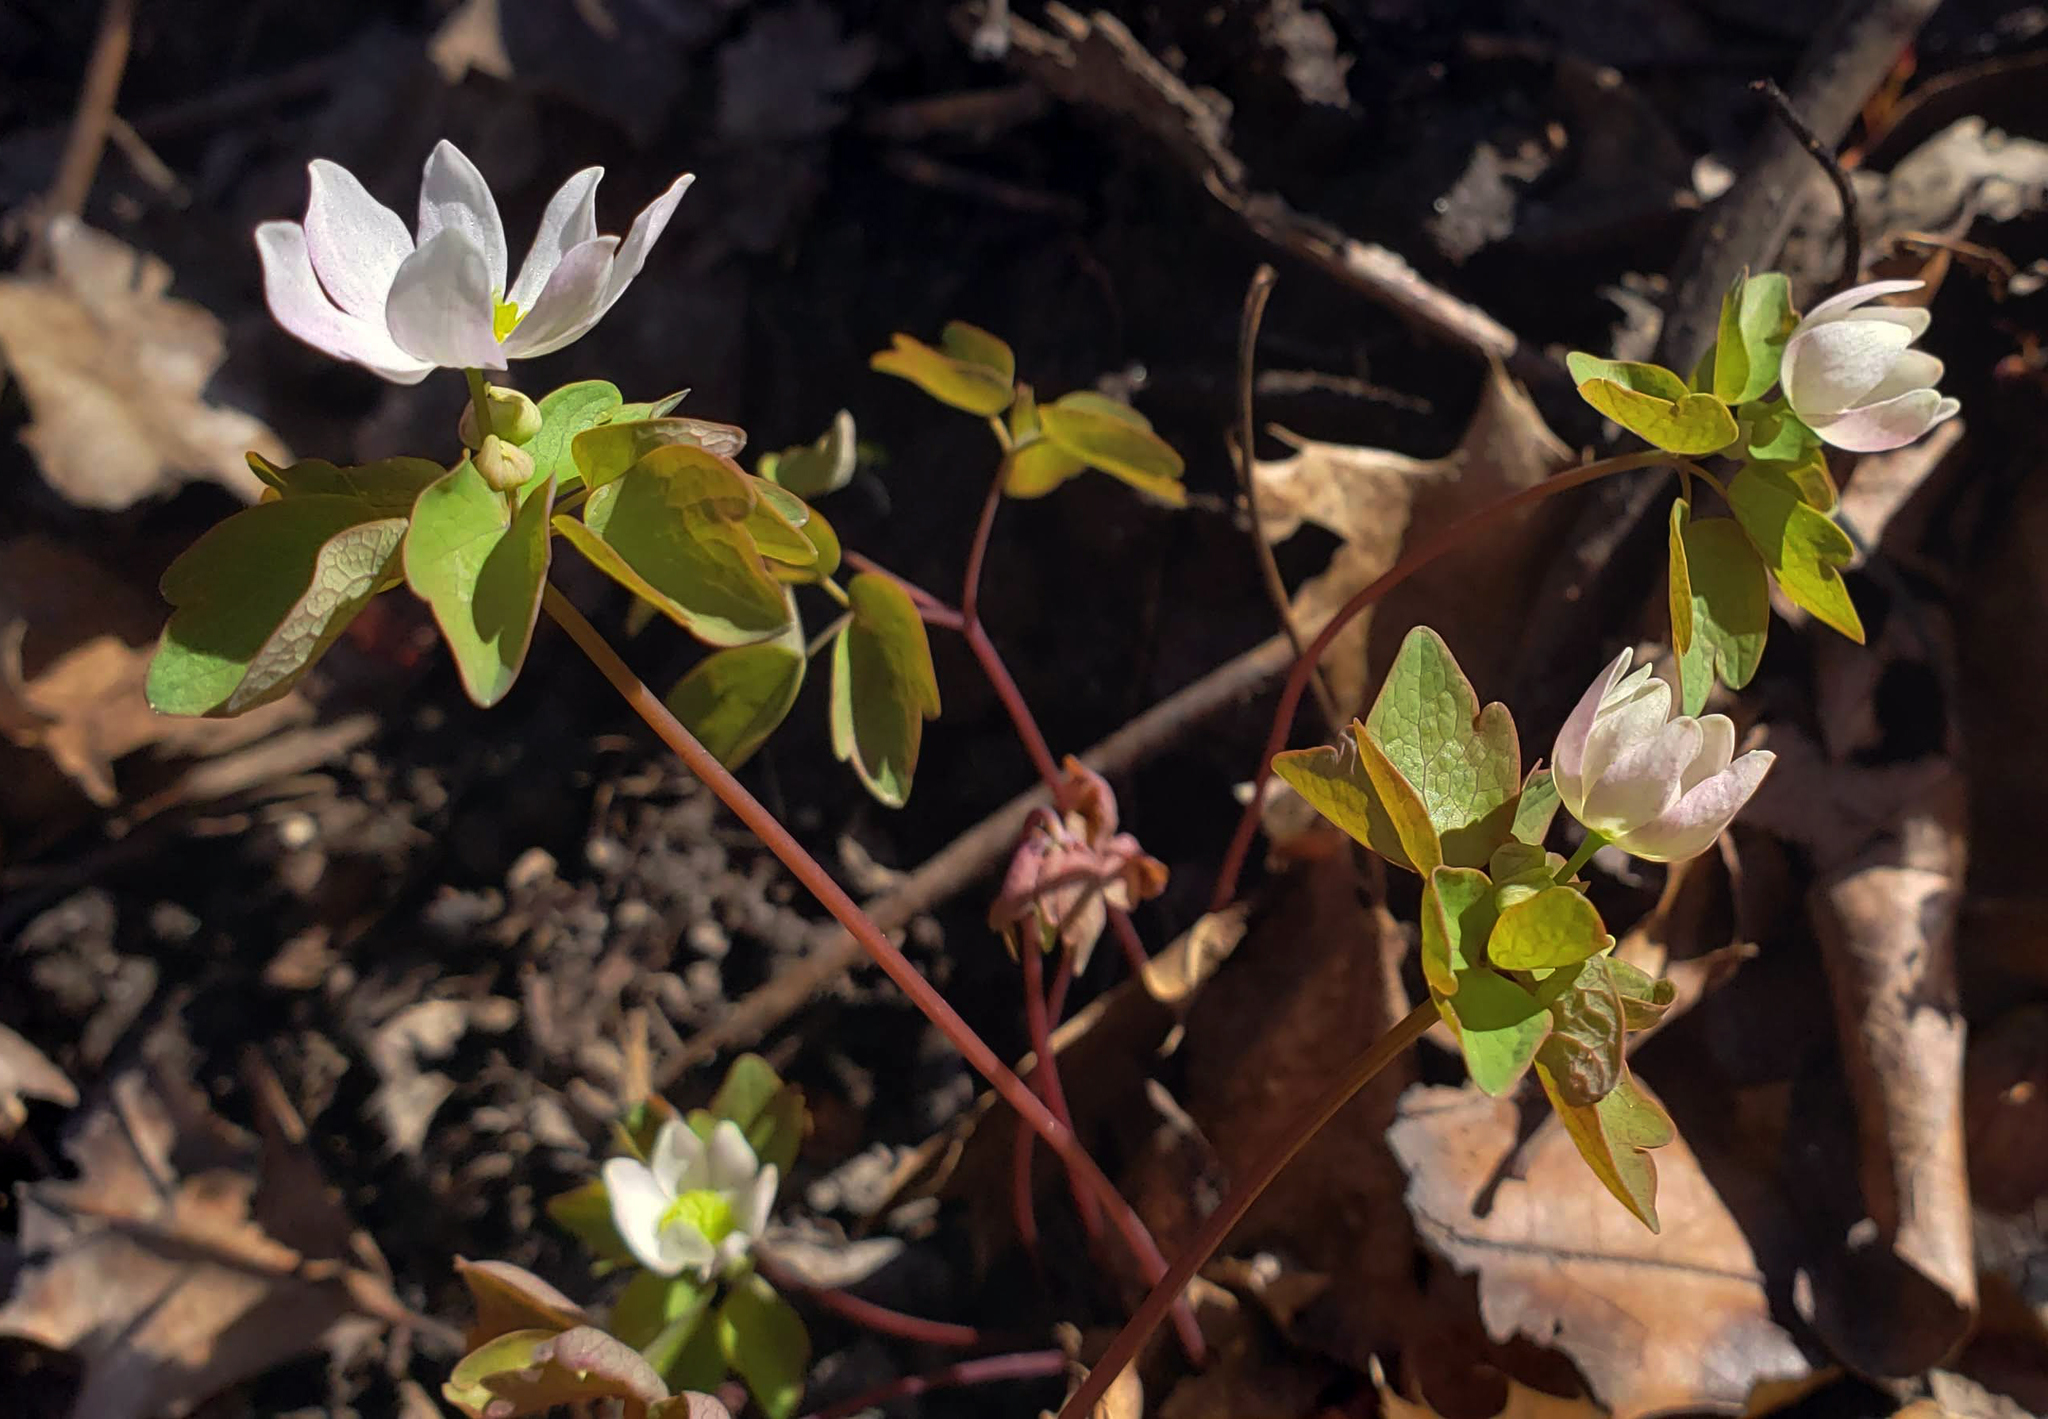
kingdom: Plantae
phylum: Tracheophyta
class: Magnoliopsida
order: Ranunculales
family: Ranunculaceae
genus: Thalictrum
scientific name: Thalictrum thalictroides
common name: Rue-anemone
